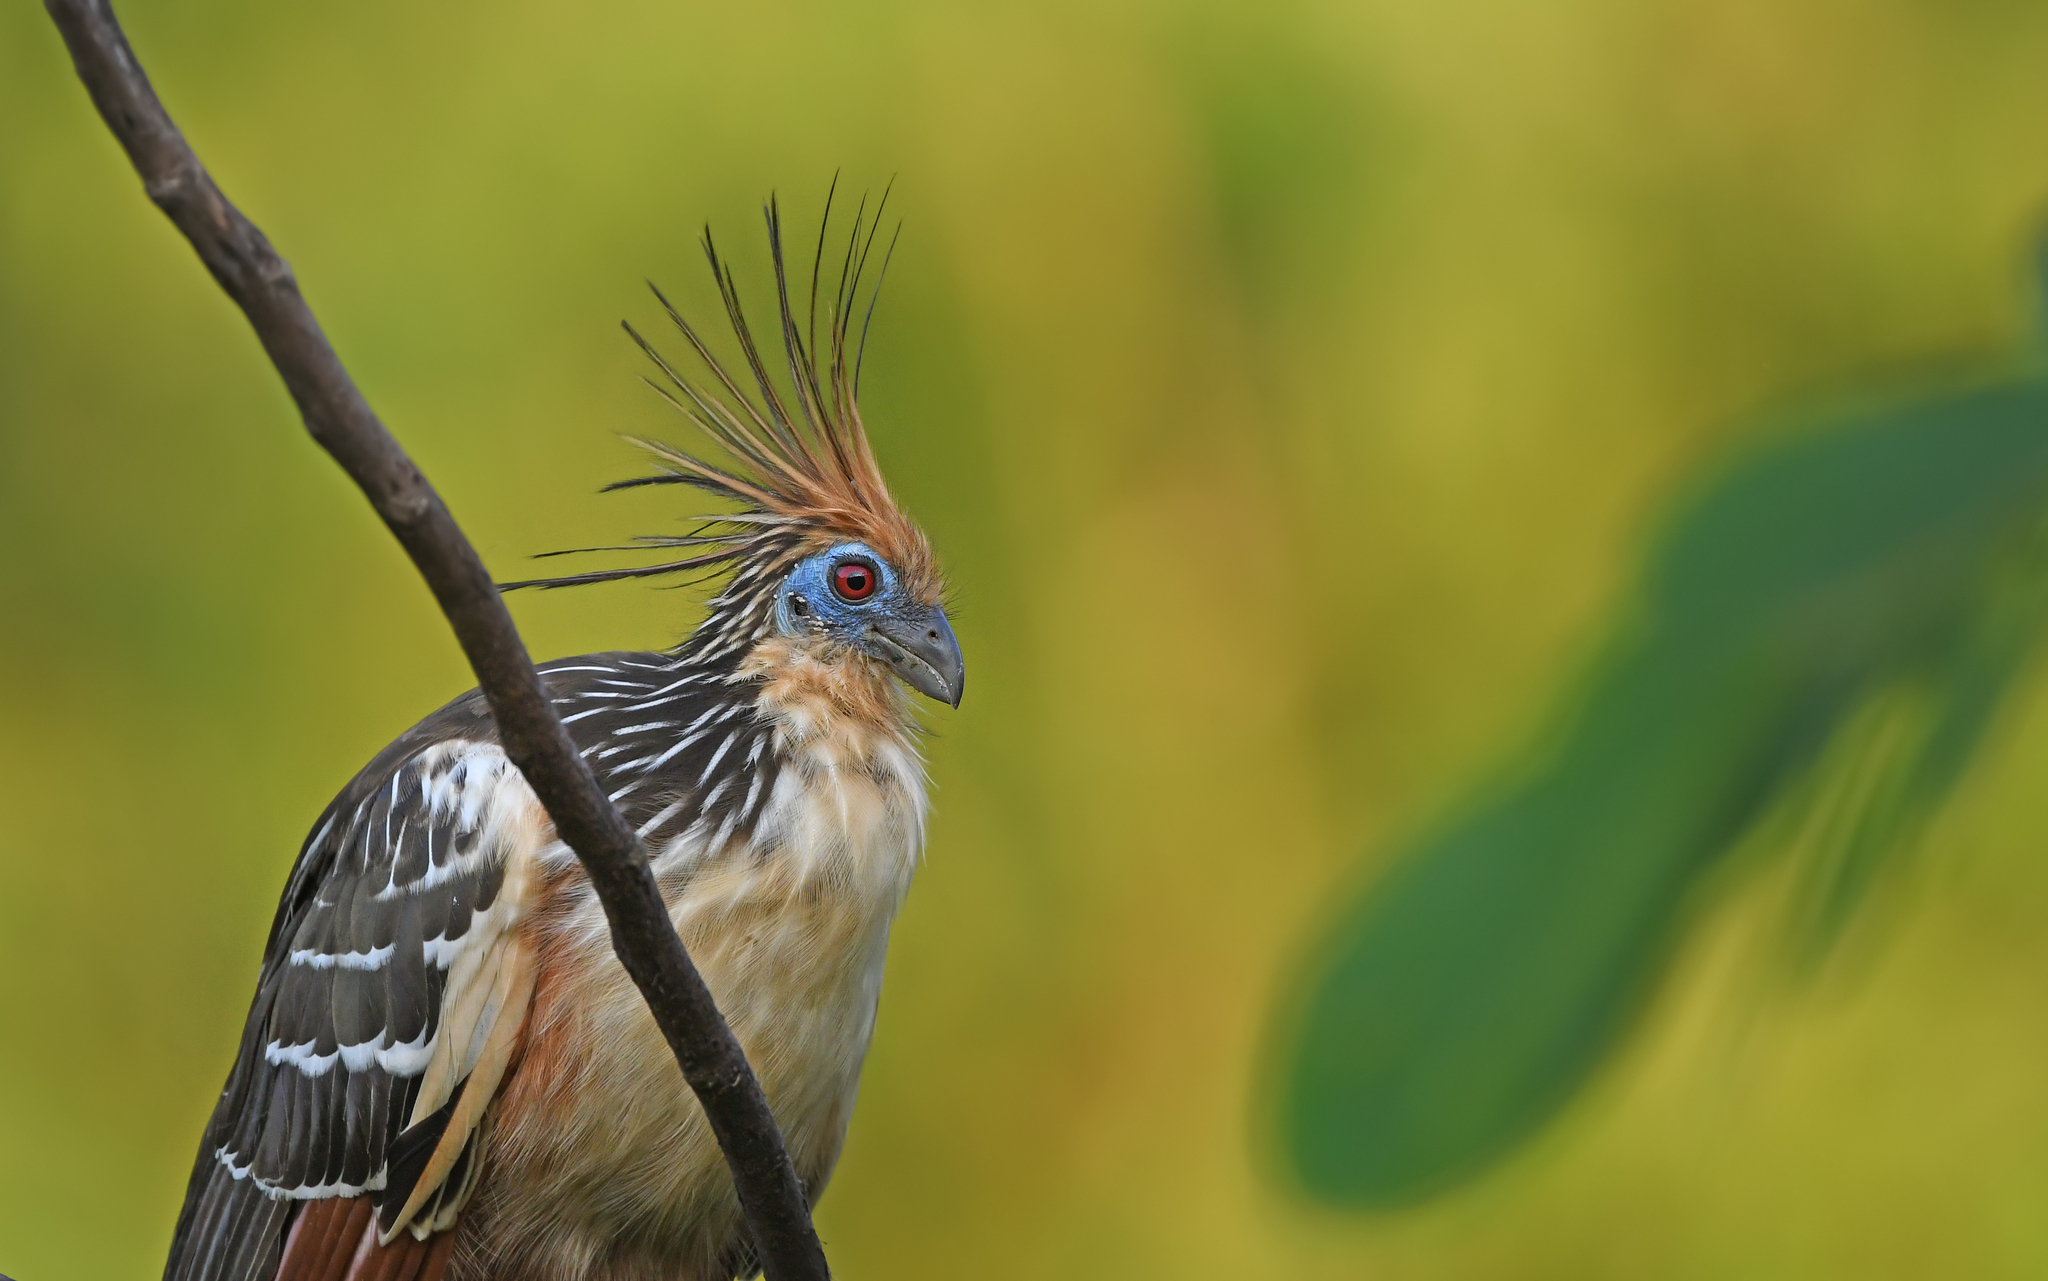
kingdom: Animalia
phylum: Chordata
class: Aves
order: Opisthocomiformes
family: Opisthocomidae
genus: Opisthocomus
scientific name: Opisthocomus hoazin
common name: Hoatzin
